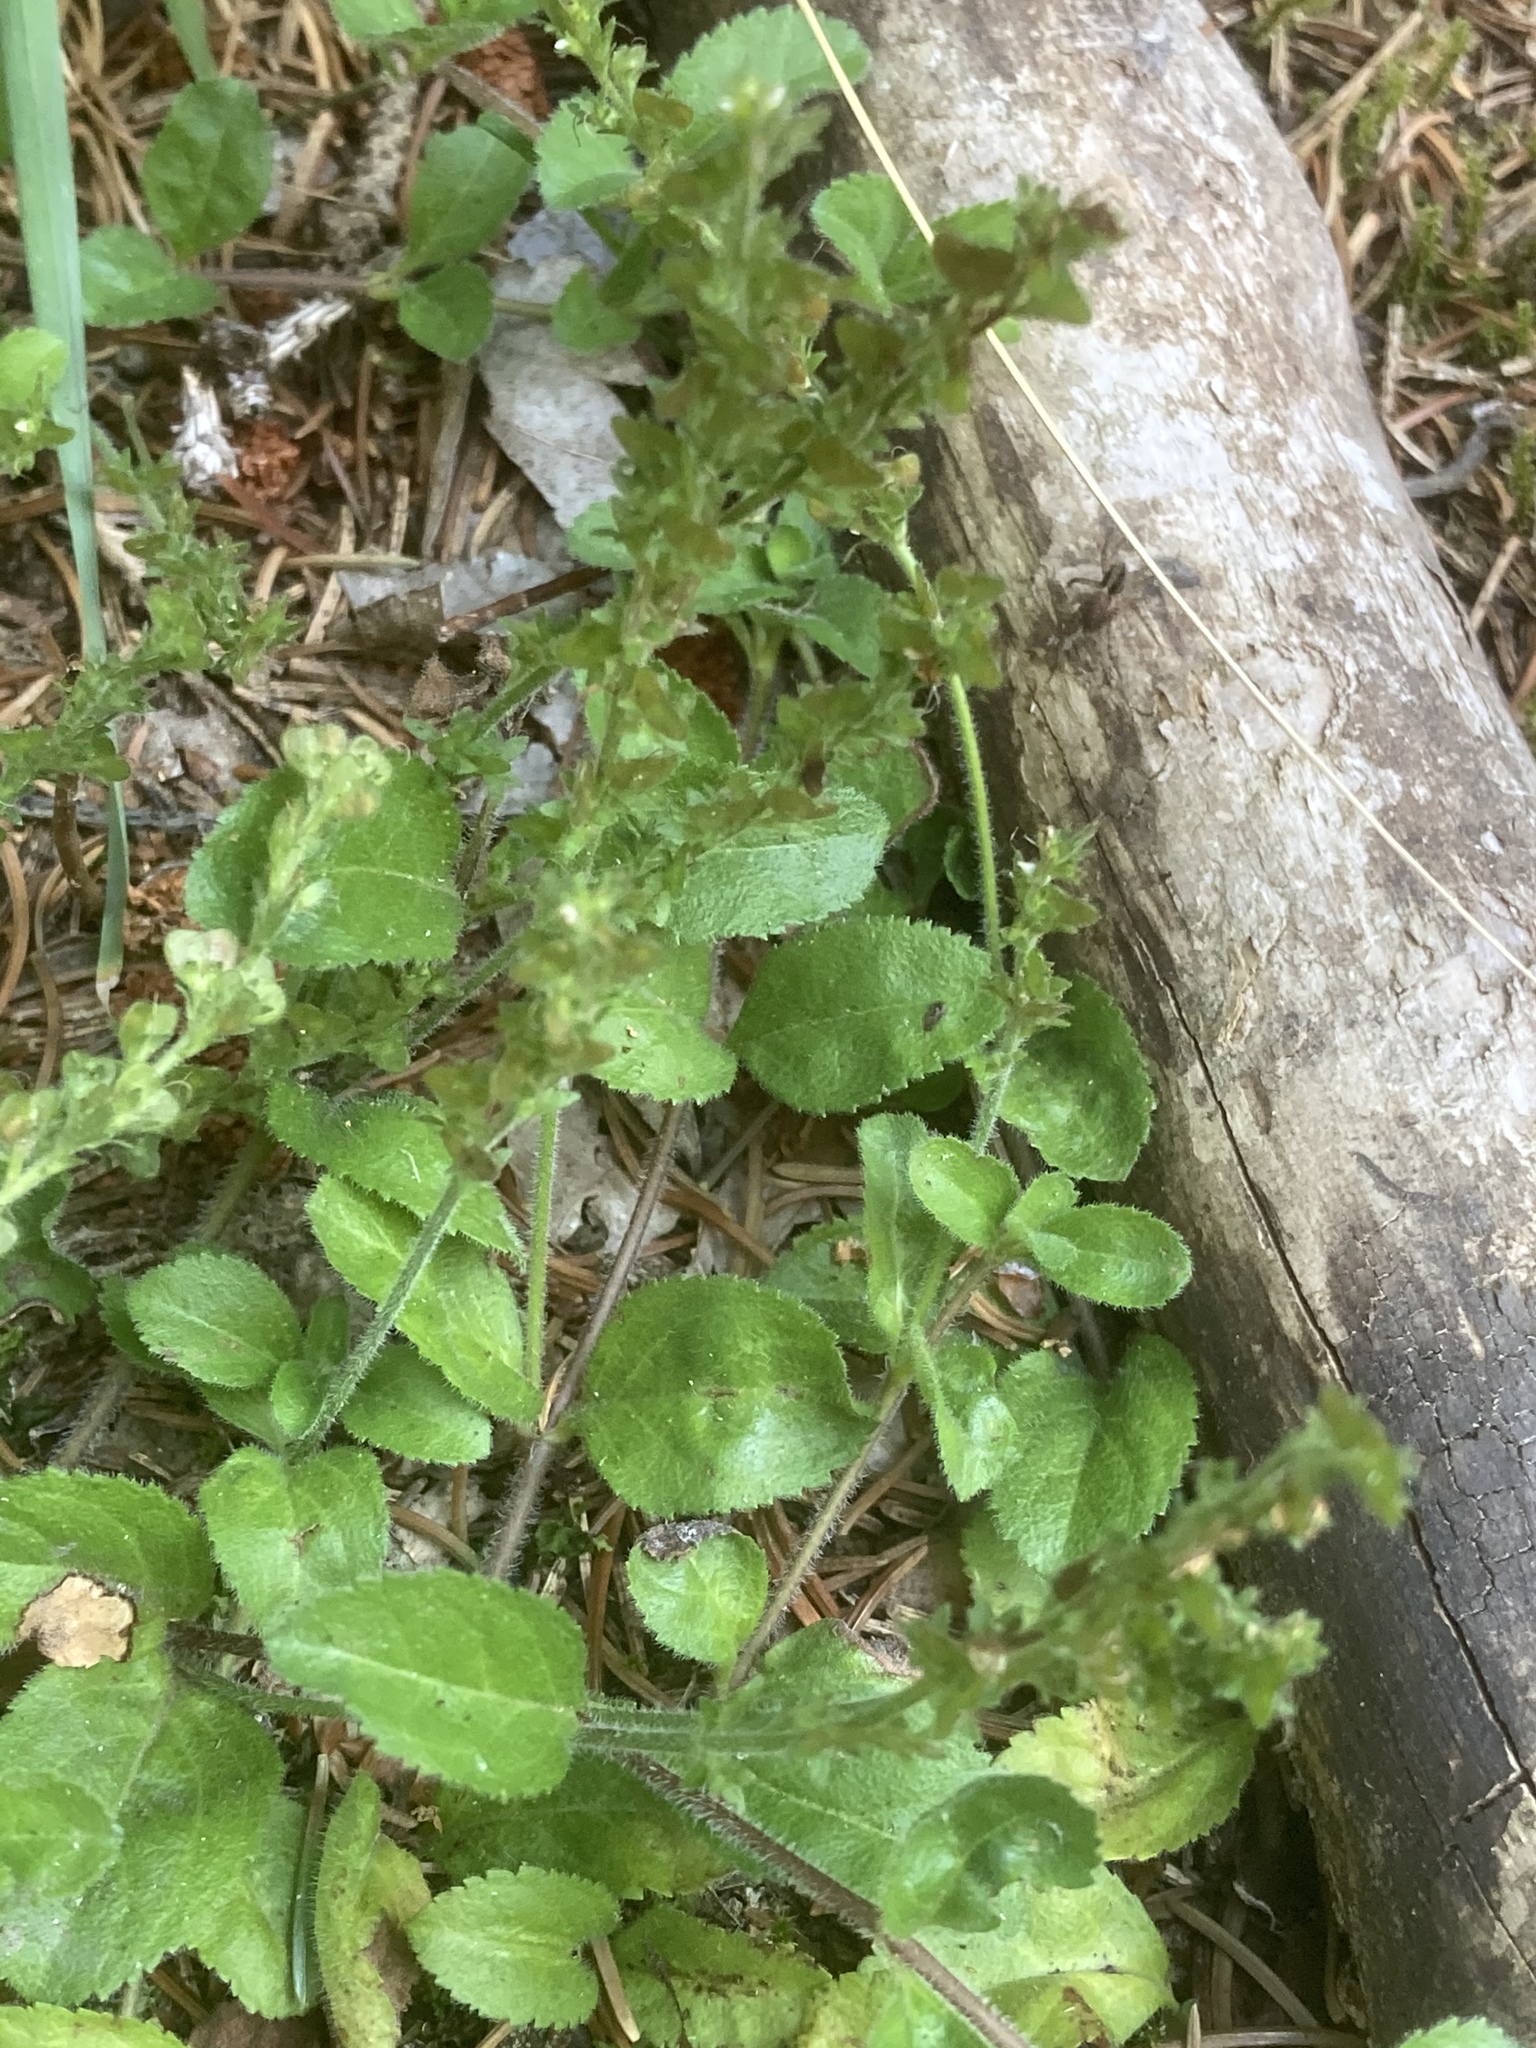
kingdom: Plantae
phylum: Tracheophyta
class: Magnoliopsida
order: Lamiales
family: Plantaginaceae
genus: Veronica
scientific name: Veronica officinalis
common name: Common speedwell
